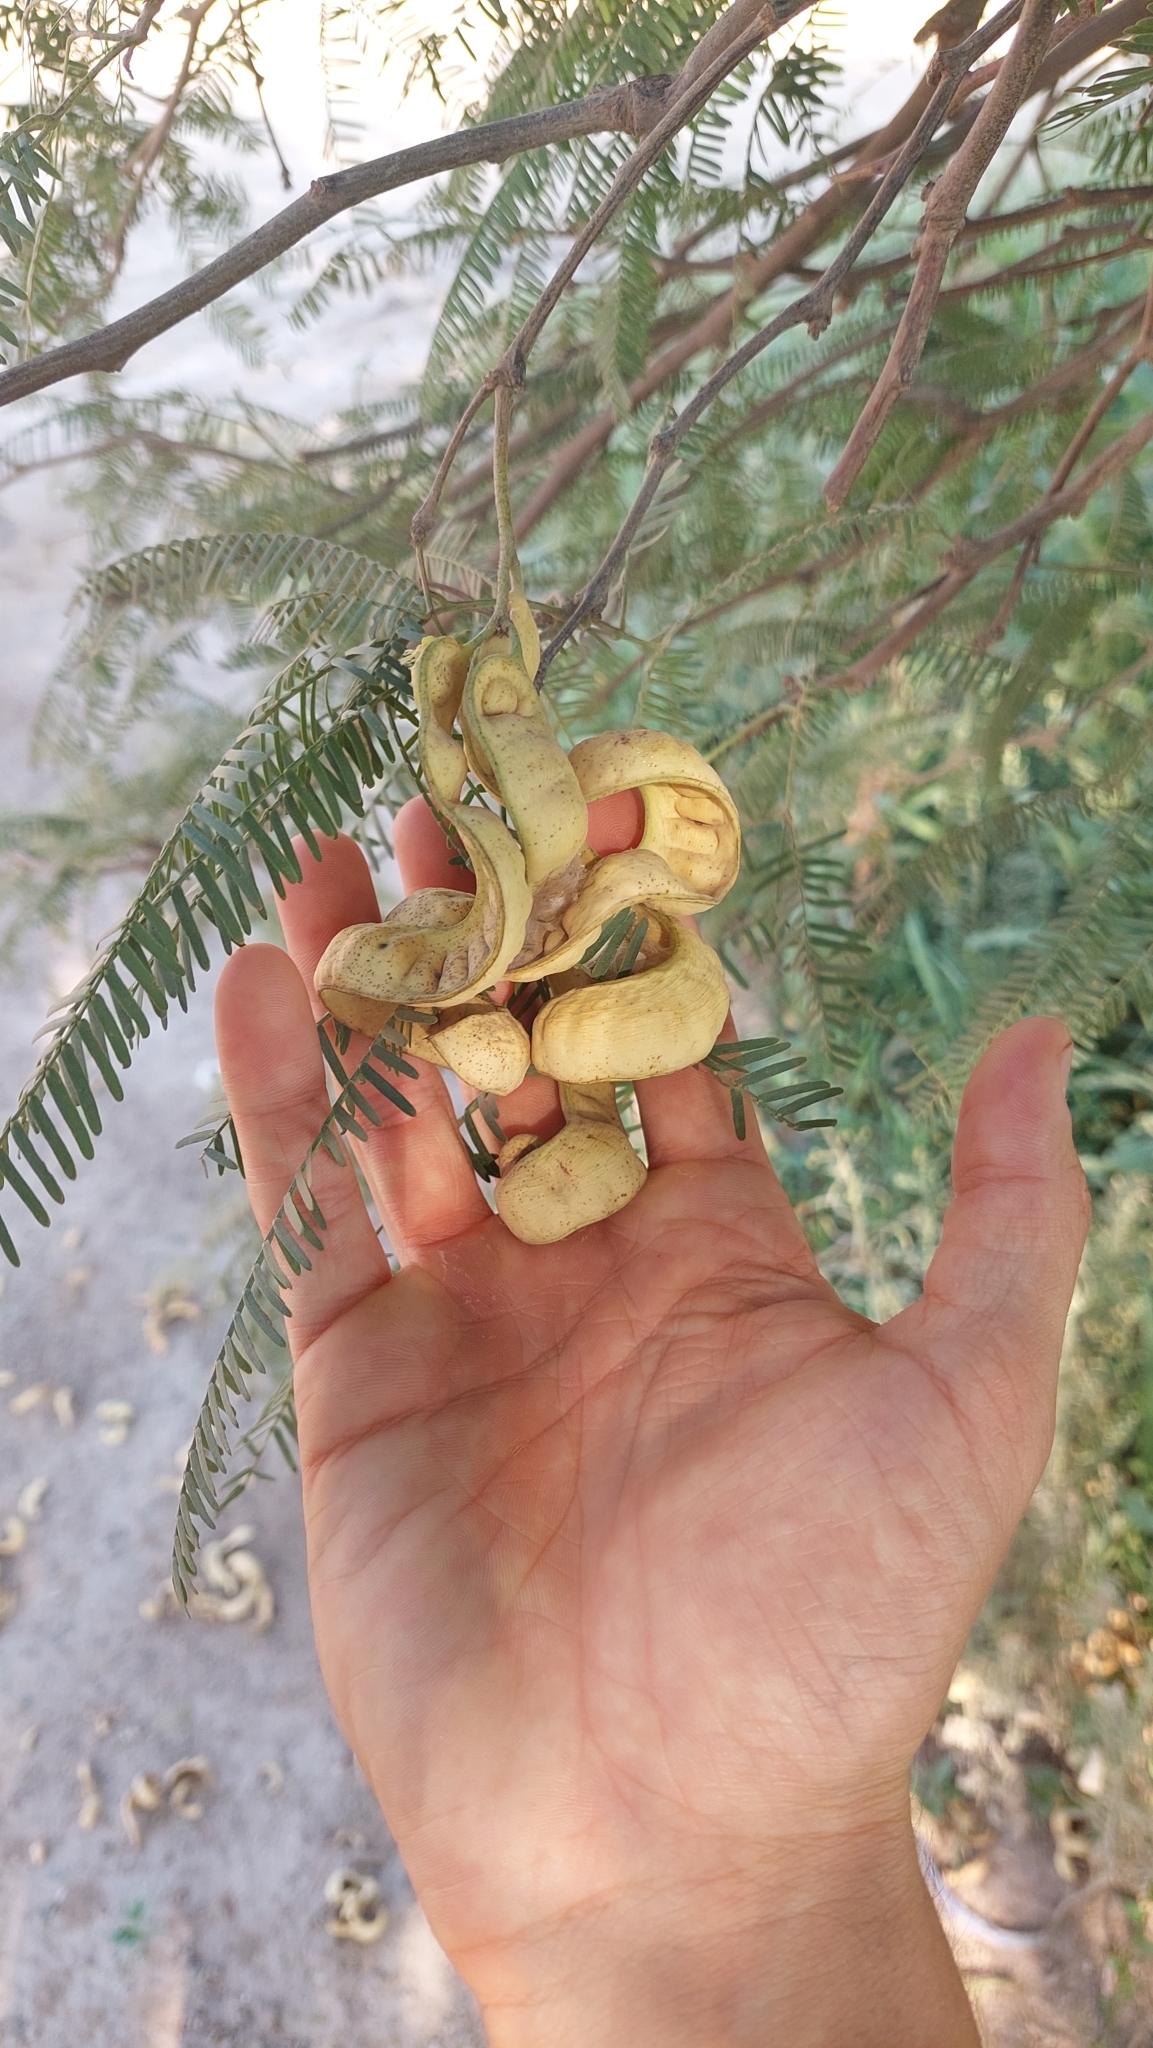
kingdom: Plantae
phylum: Tracheophyta
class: Magnoliopsida
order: Fabales
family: Fabaceae
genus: Prosopis
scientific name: Prosopis alba
